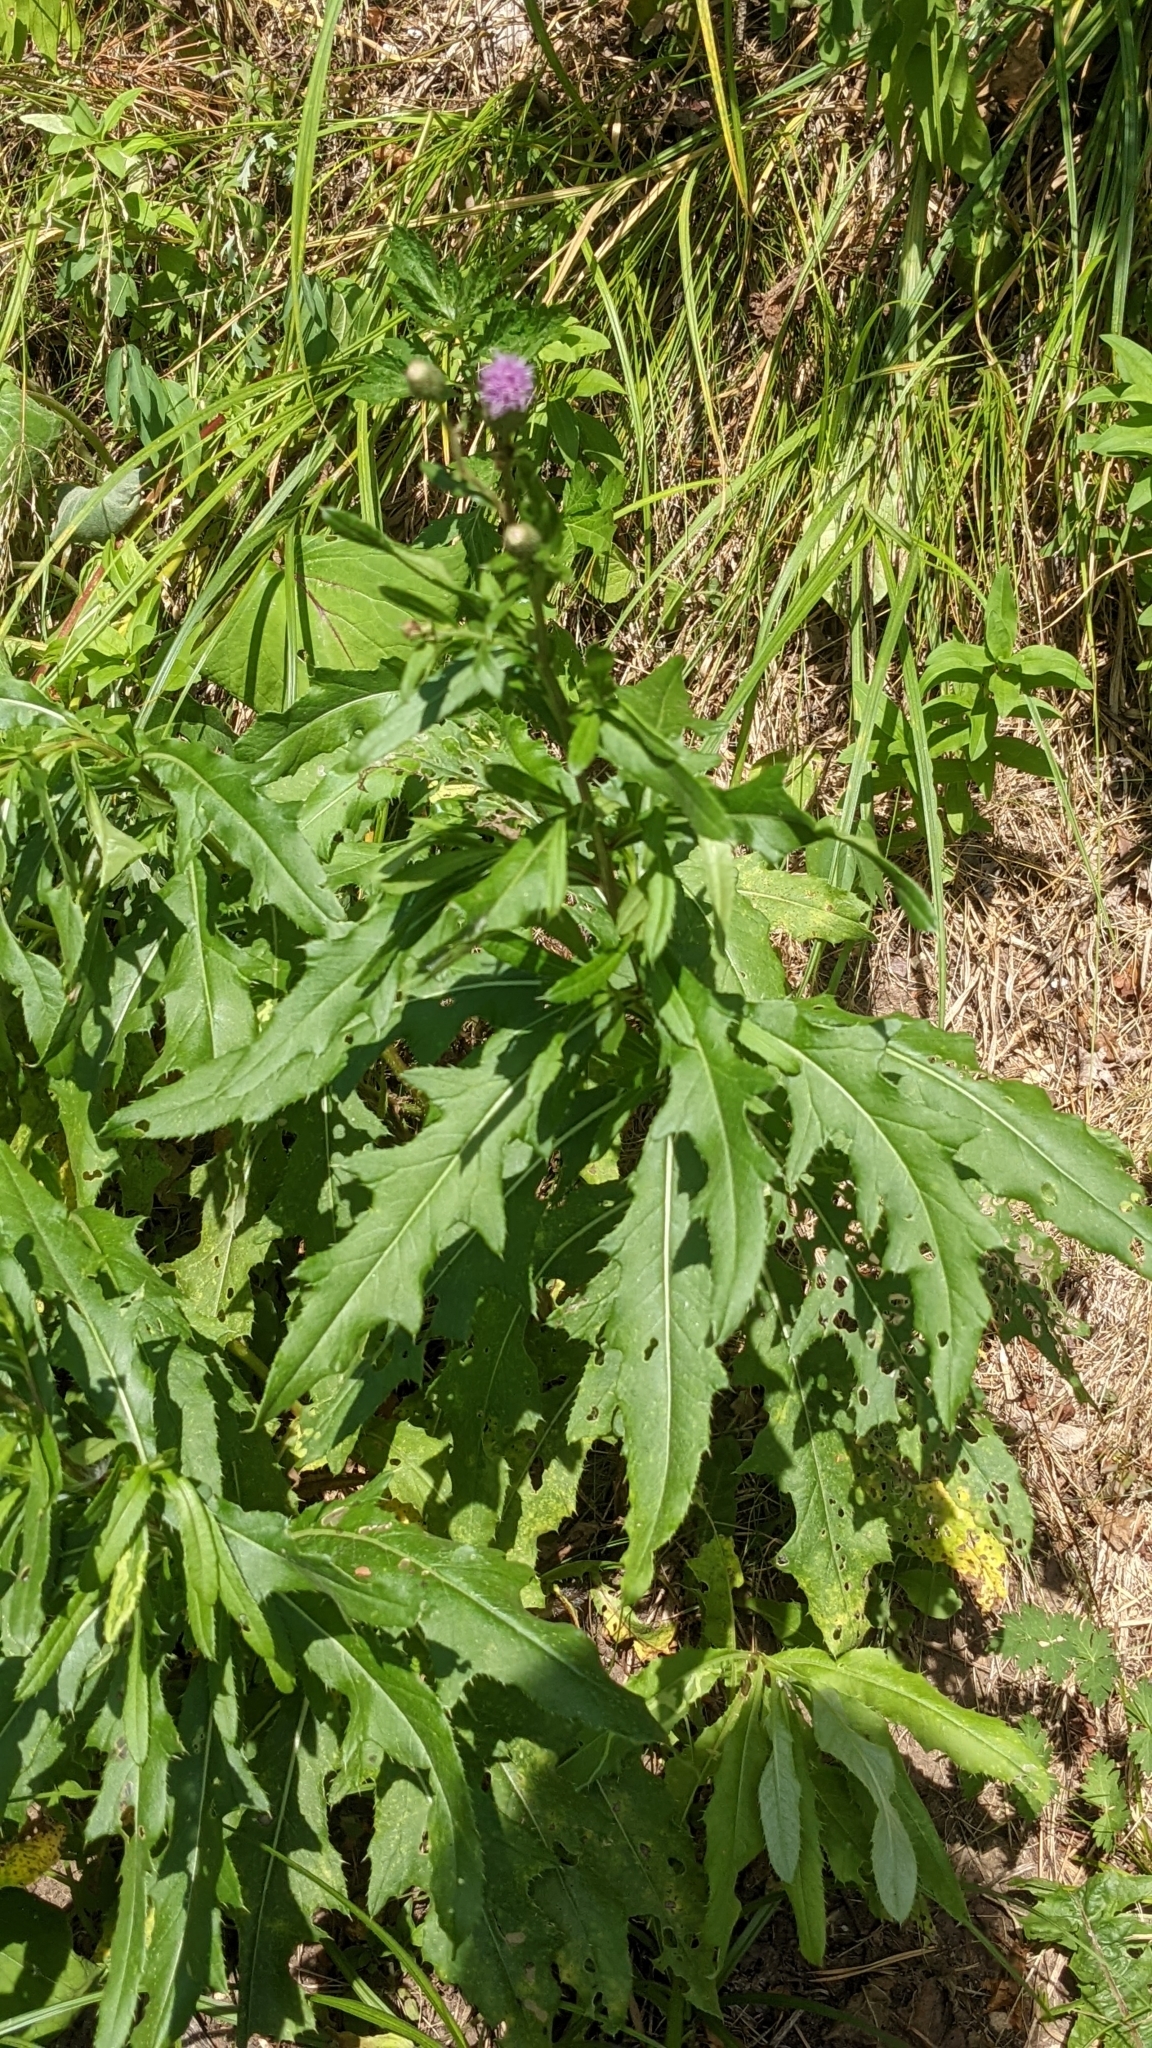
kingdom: Plantae
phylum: Tracheophyta
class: Magnoliopsida
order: Asterales
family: Asteraceae
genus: Cirsium
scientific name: Cirsium arvense
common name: Creeping thistle
